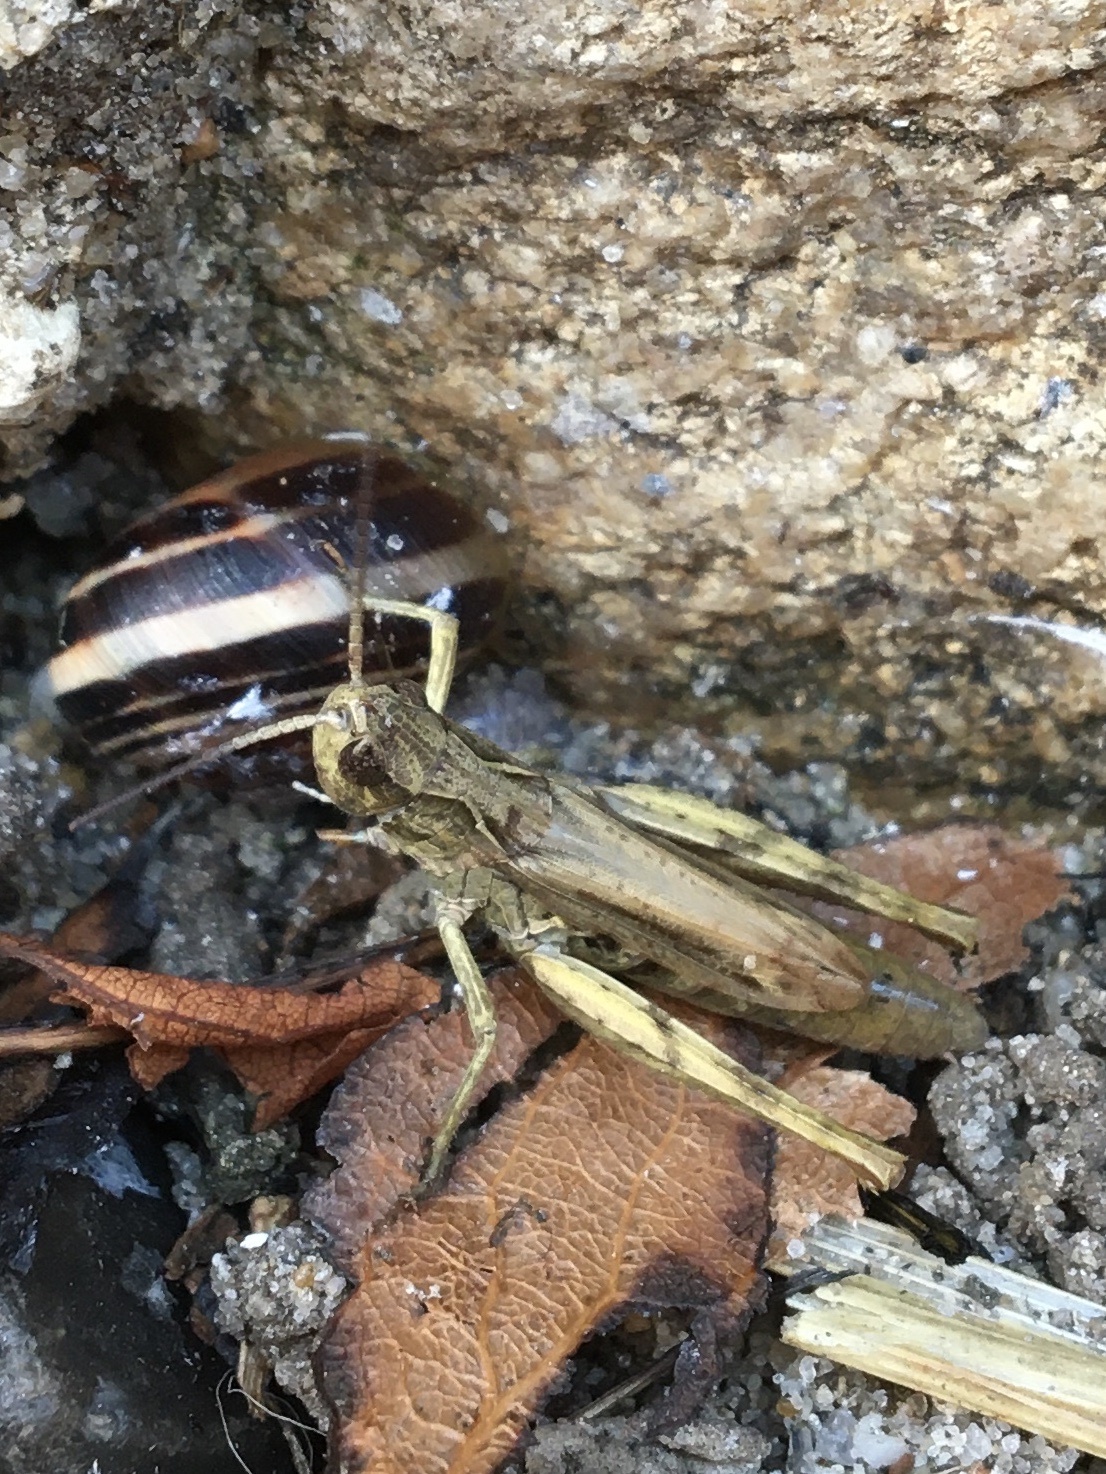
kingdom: Animalia
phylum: Arthropoda
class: Insecta
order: Orthoptera
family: Acrididae
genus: Chorthippus
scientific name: Chorthippus apricarius
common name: Upland field grasshopper
